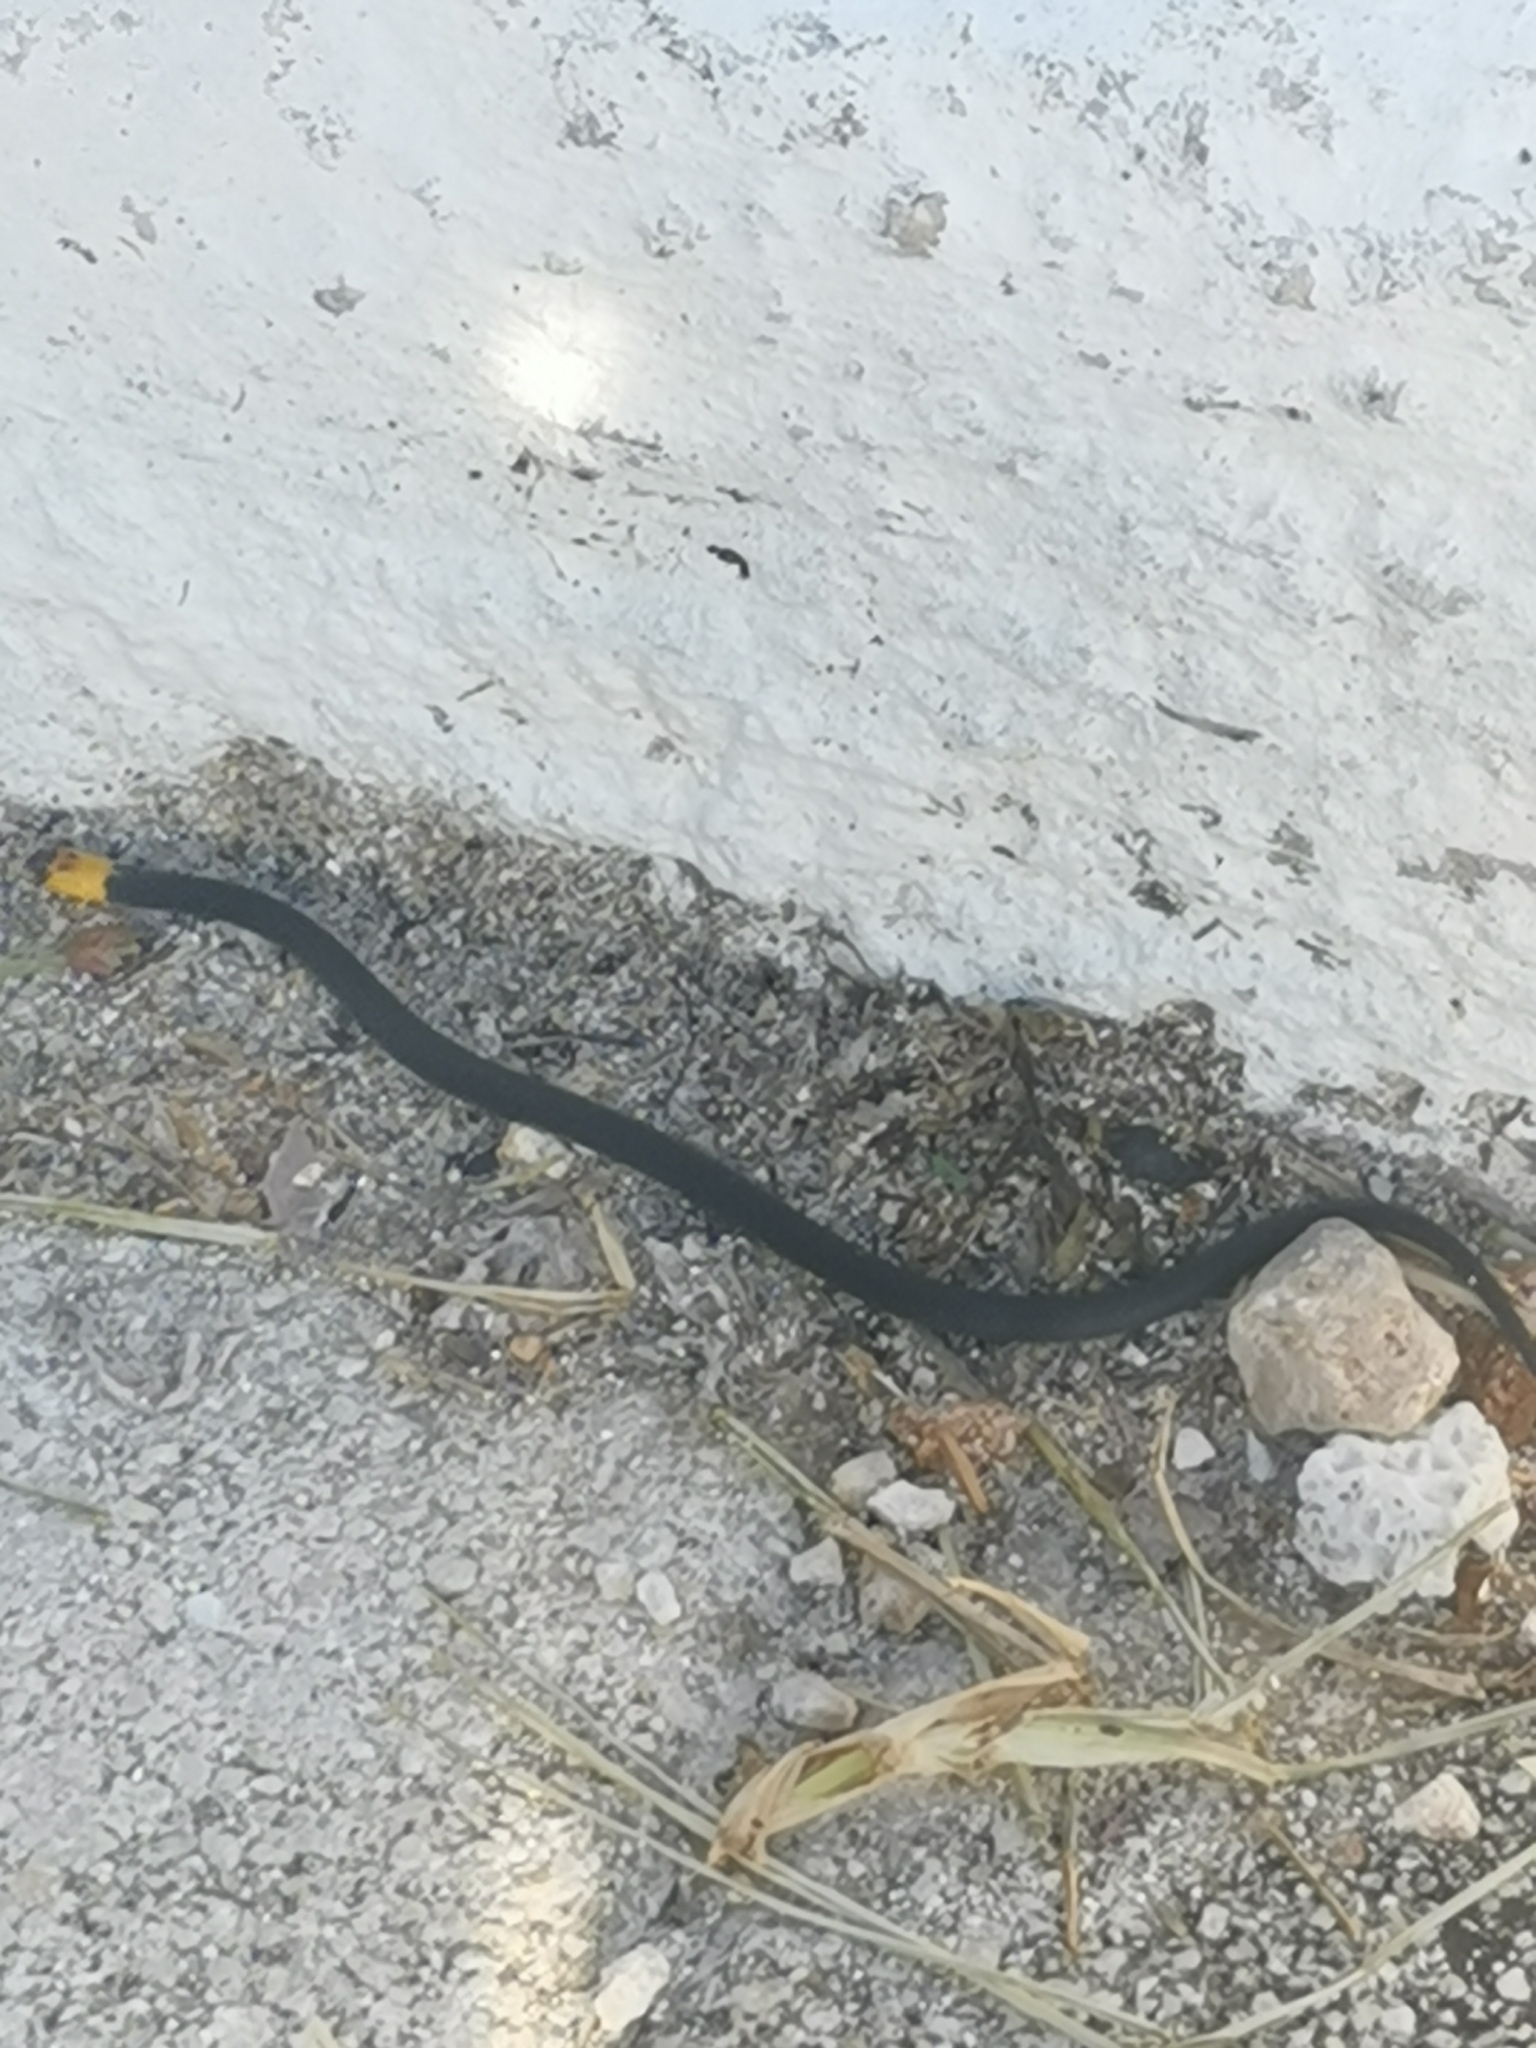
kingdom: Animalia
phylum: Chordata
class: Squamata
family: Colubridae
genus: Tantilla
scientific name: Tantilla moesta
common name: Blackbelly centipede snake
